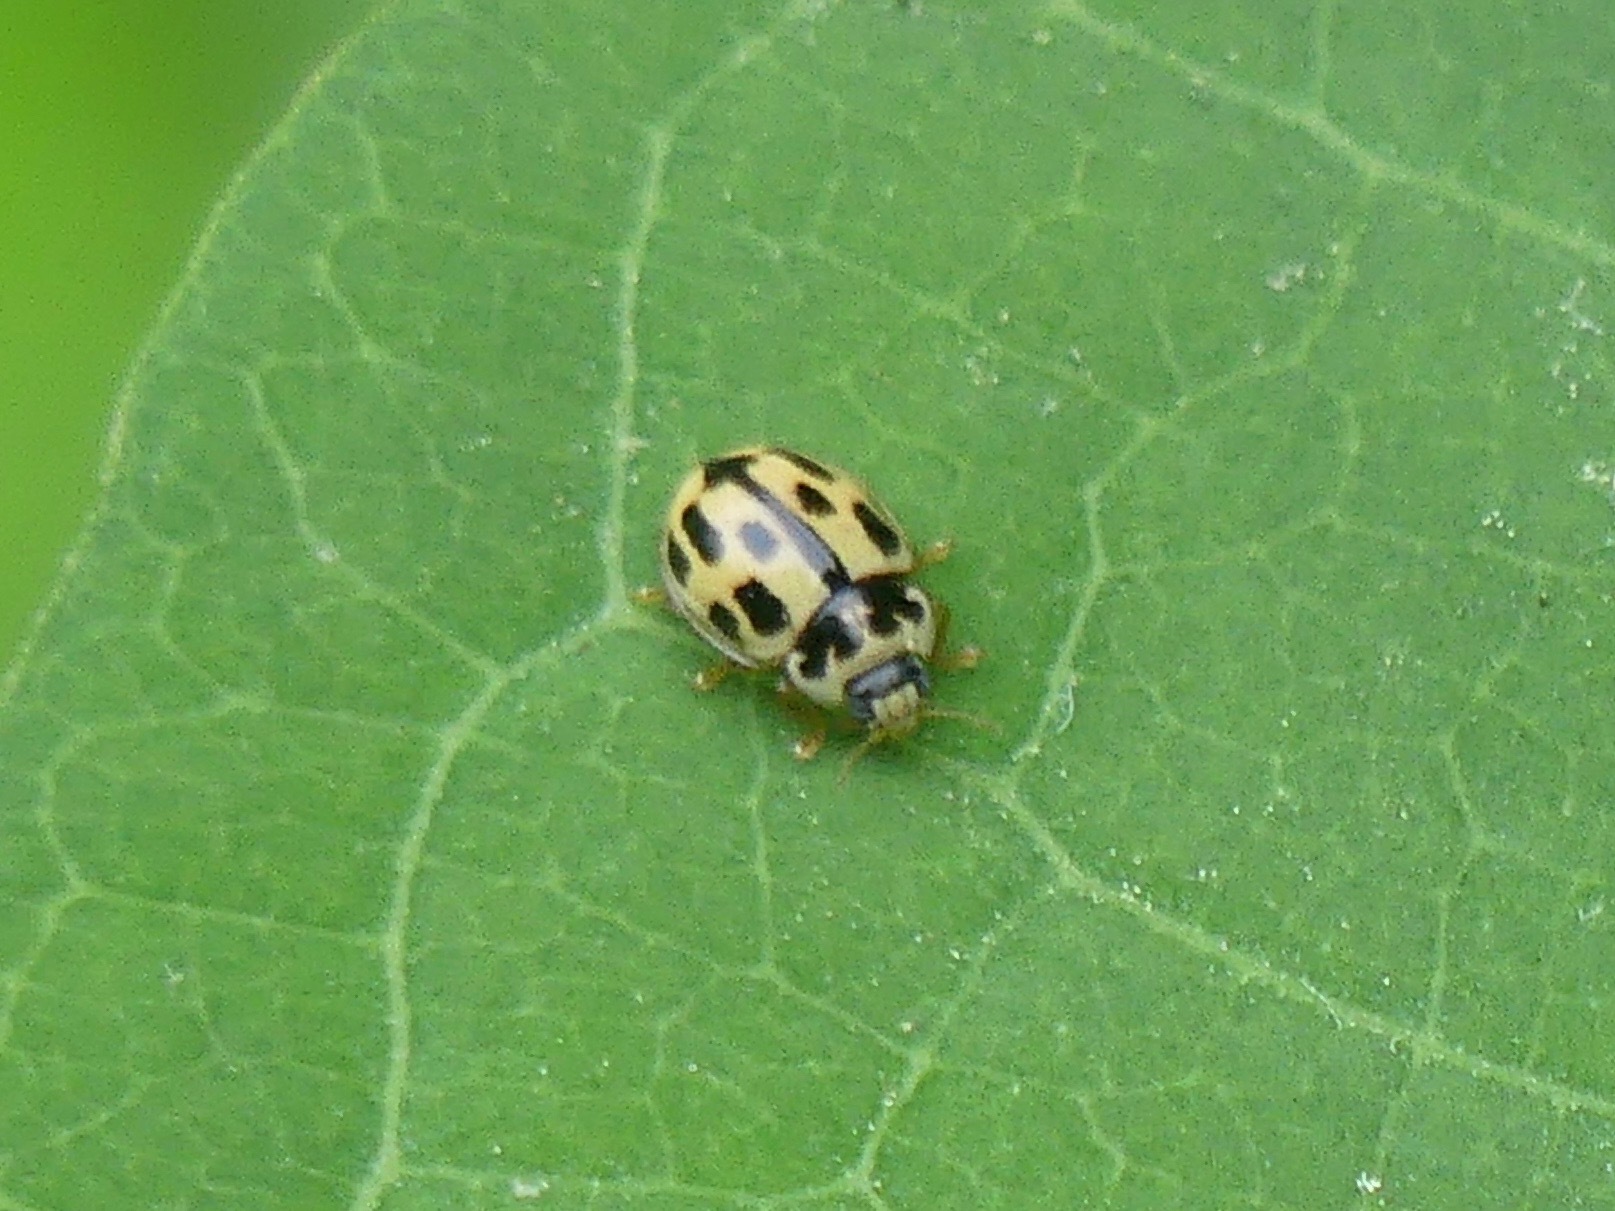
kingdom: Animalia
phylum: Arthropoda
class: Insecta
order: Coleoptera
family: Coccinellidae
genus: Propylaea
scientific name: Propylaea quatuordecimpunctata
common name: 14-spotted ladybird beetle
